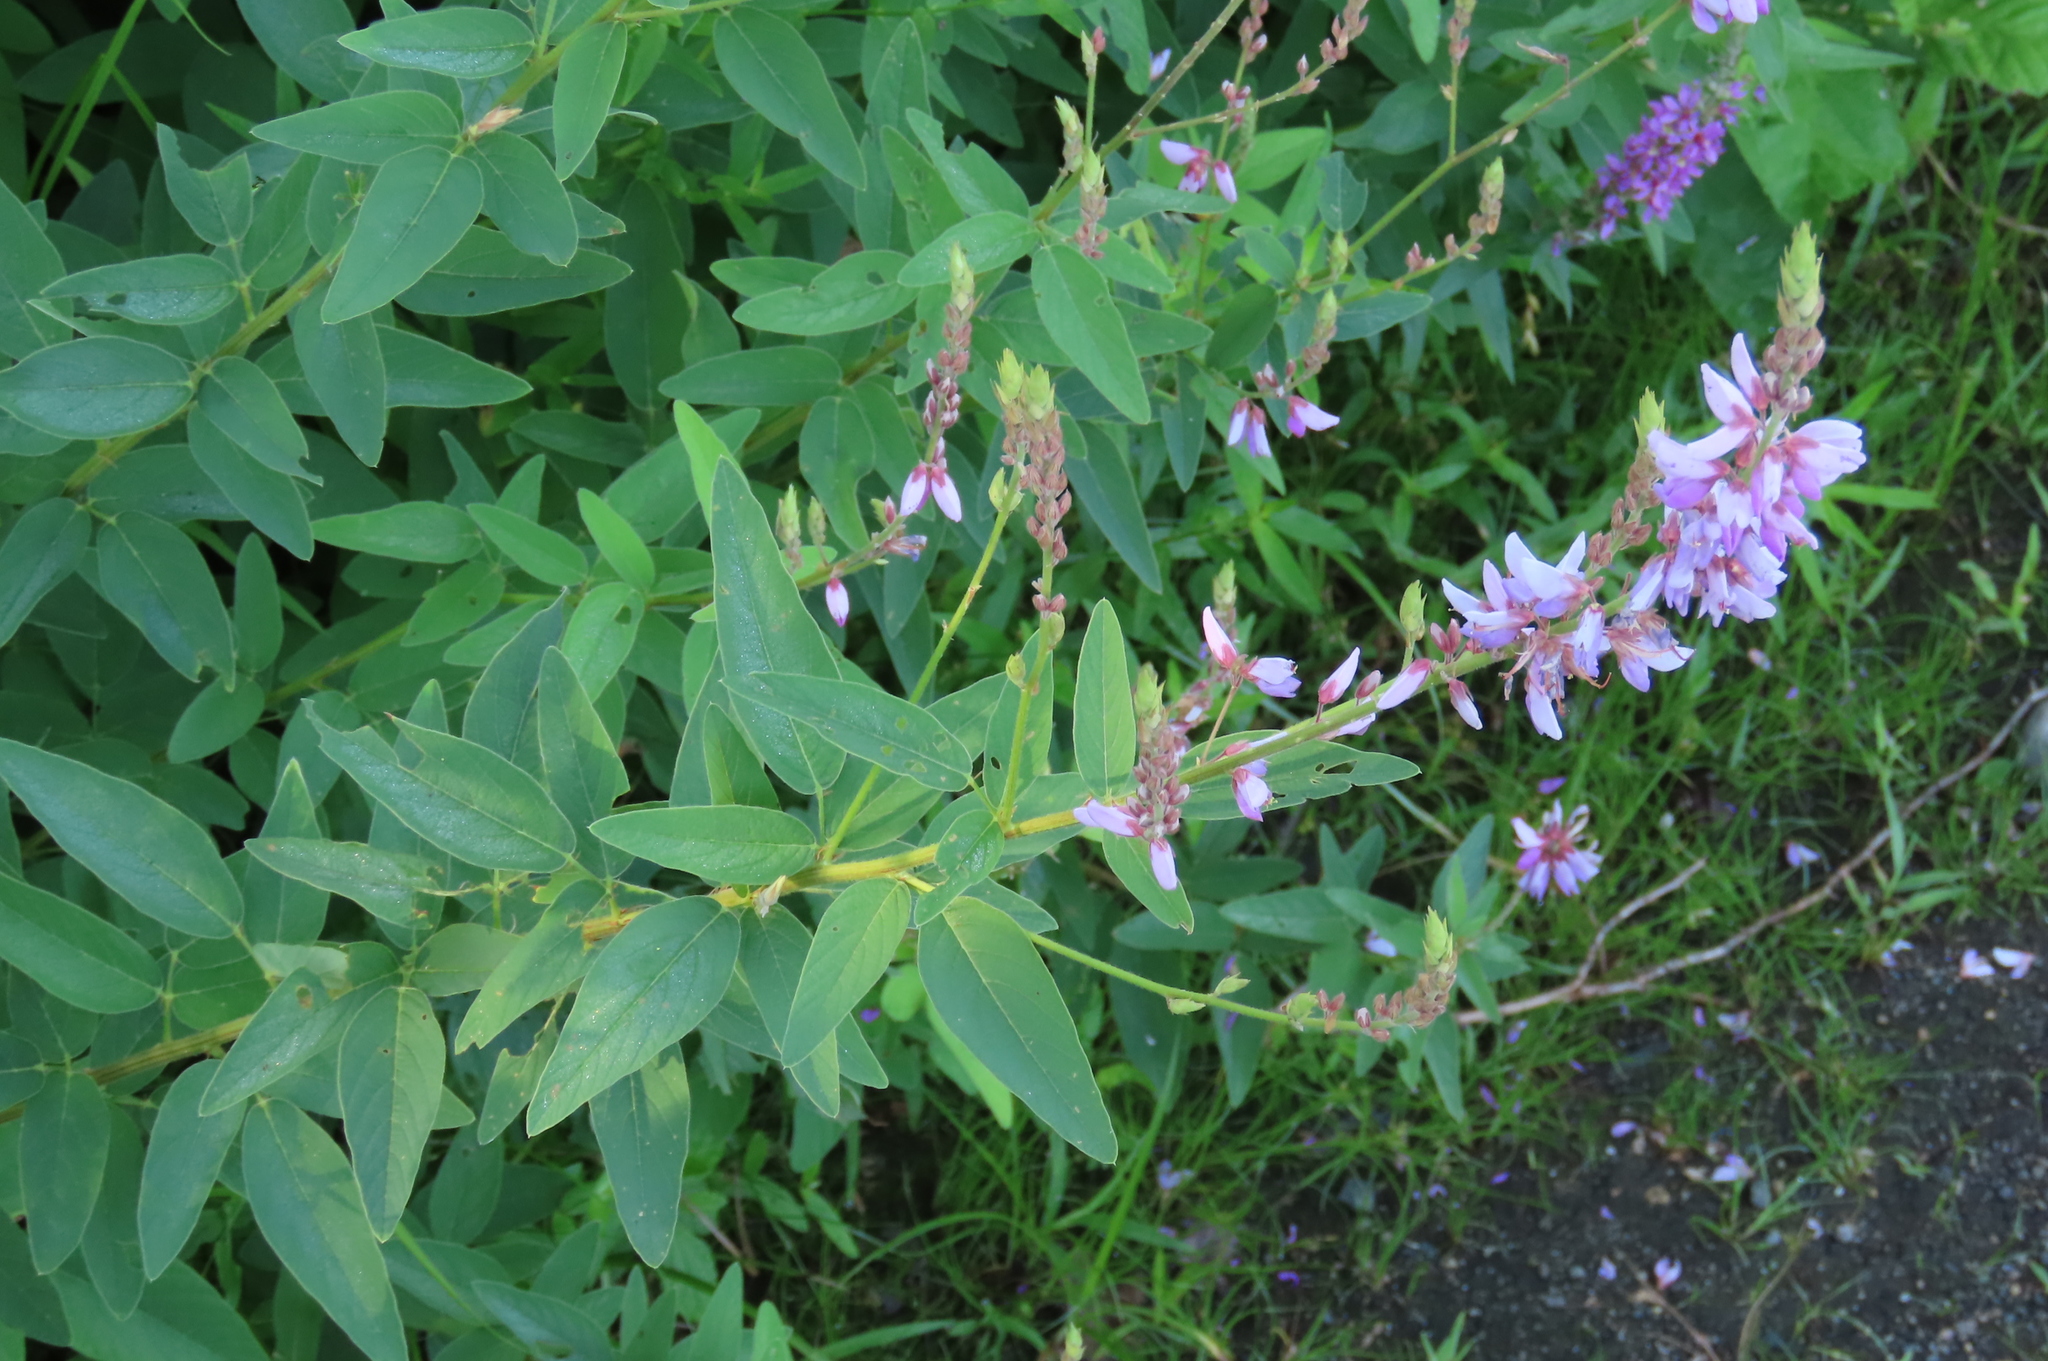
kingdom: Plantae
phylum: Tracheophyta
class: Magnoliopsida
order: Fabales
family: Fabaceae
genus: Desmodium
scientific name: Desmodium canadense
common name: Canada tick-trefoil
